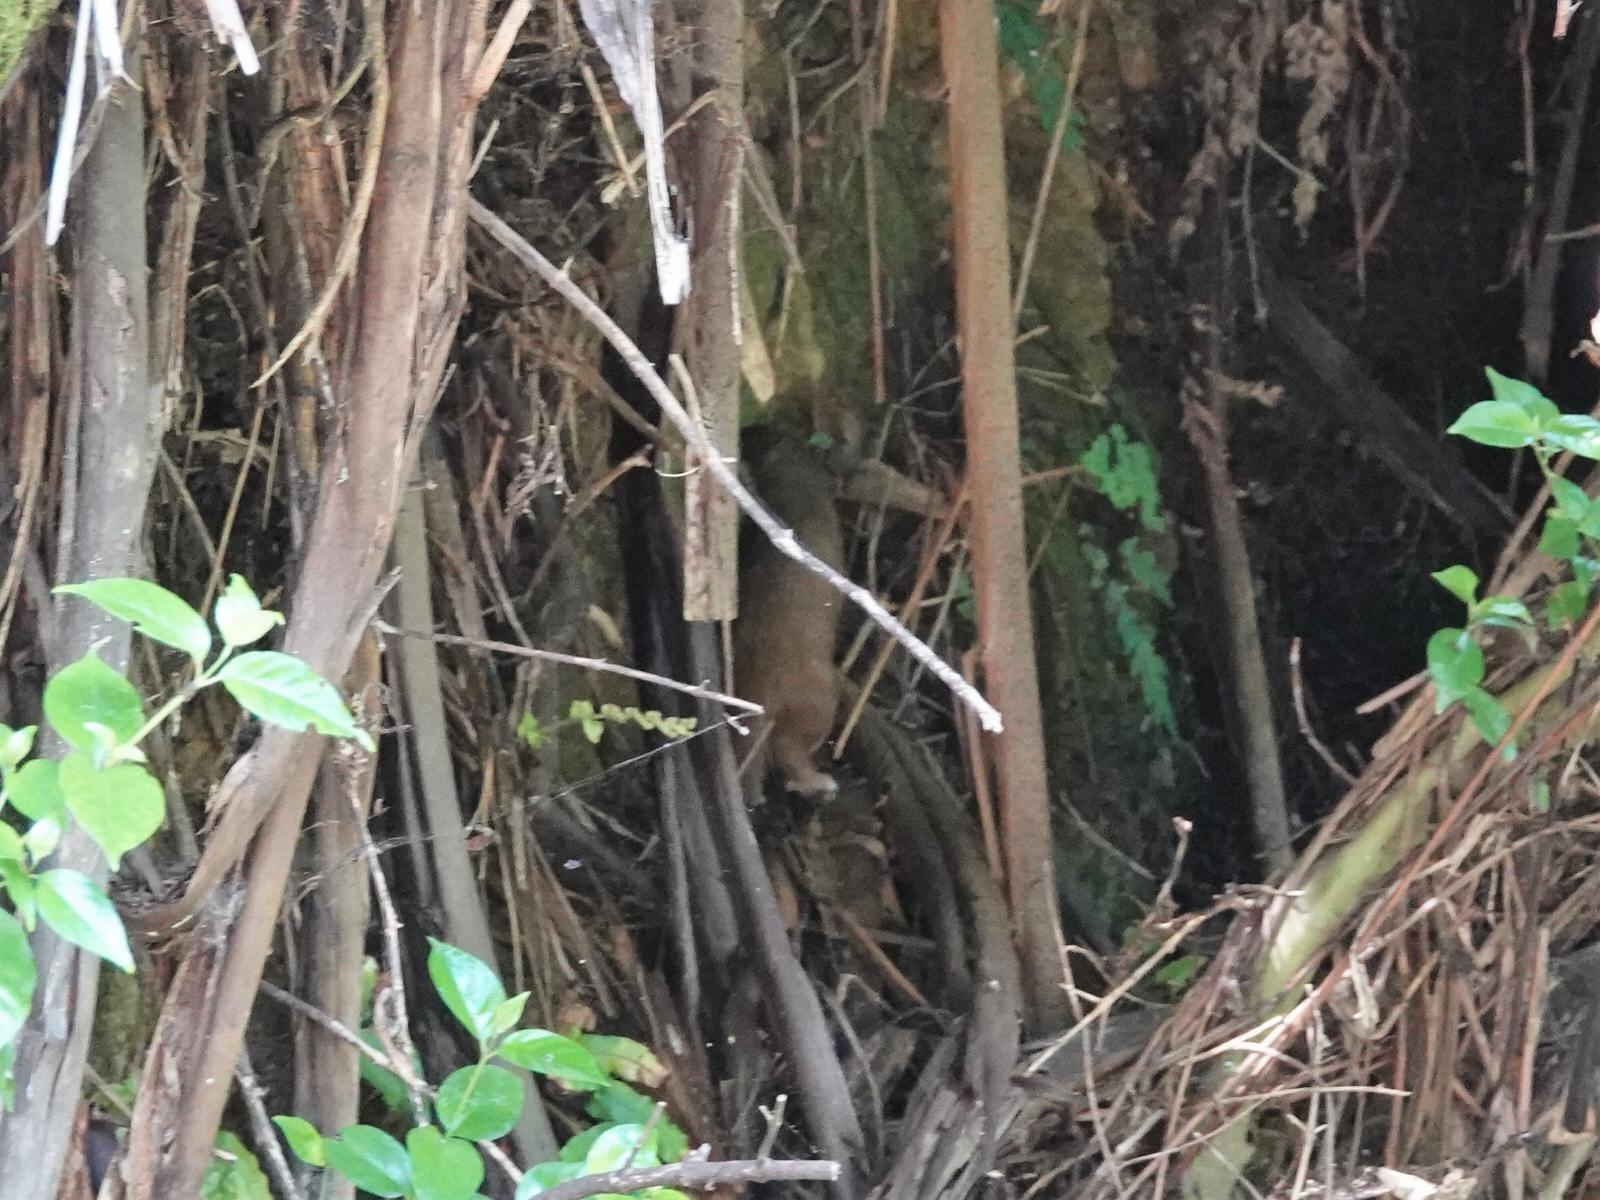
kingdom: Animalia
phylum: Chordata
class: Mammalia
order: Carnivora
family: Mustelidae
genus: Mustela
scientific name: Mustela erminea
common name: Stoat
